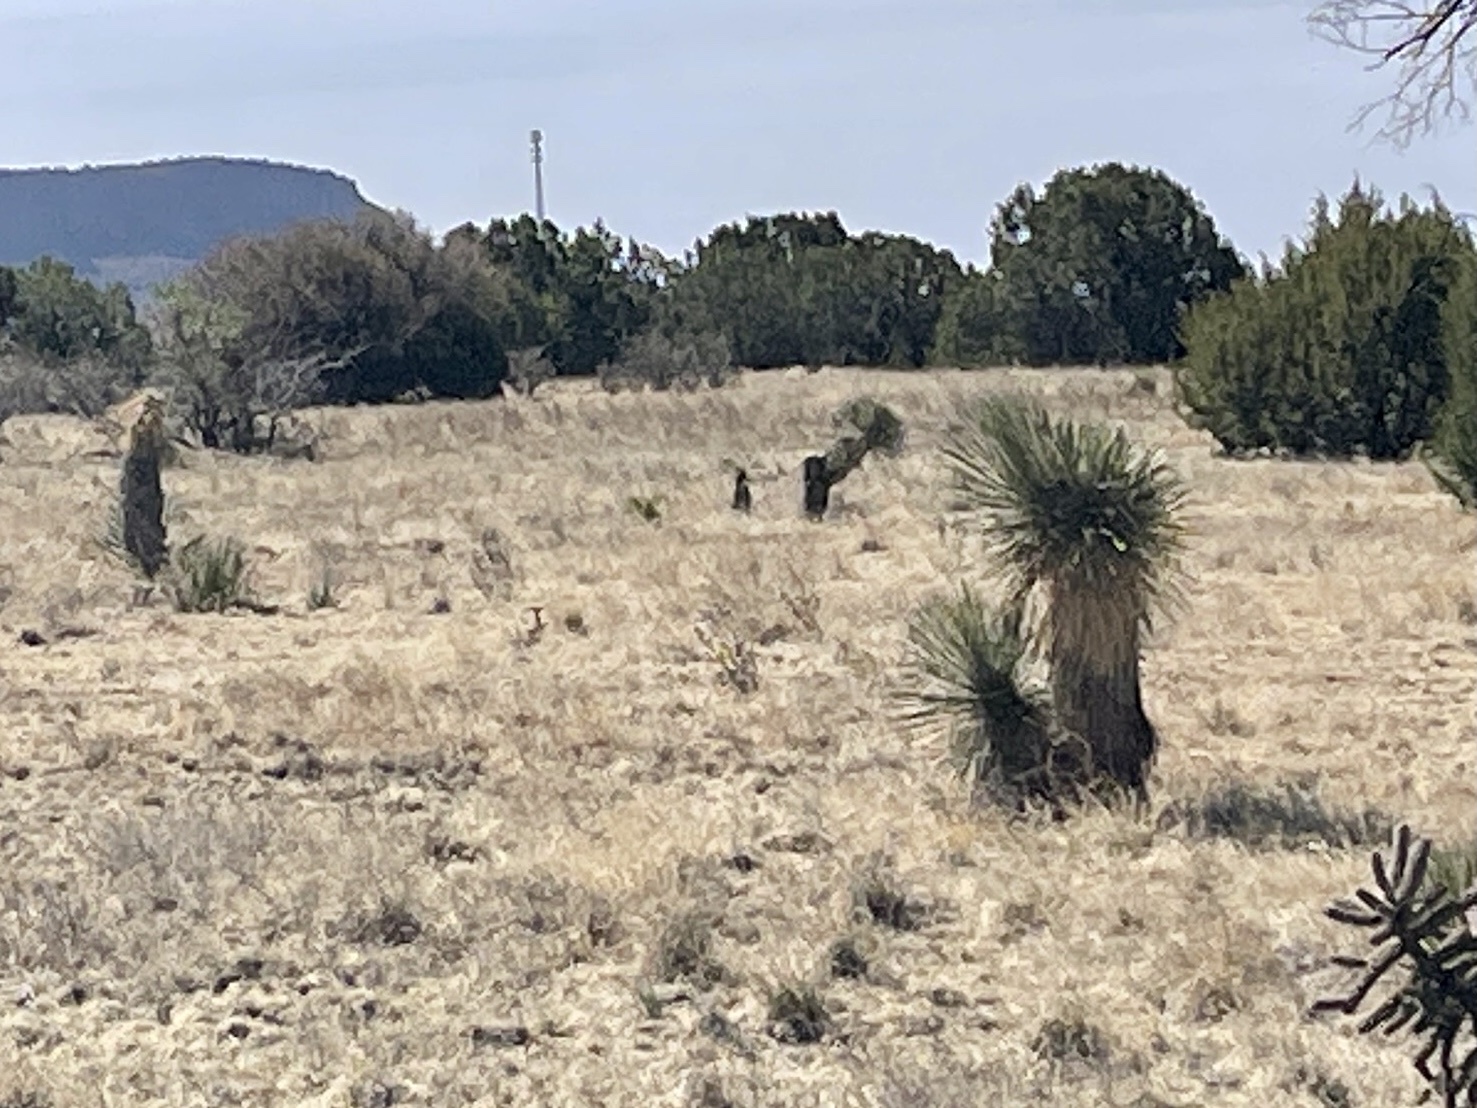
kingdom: Plantae
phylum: Tracheophyta
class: Liliopsida
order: Asparagales
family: Asparagaceae
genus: Yucca
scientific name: Yucca elata
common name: Palmella
